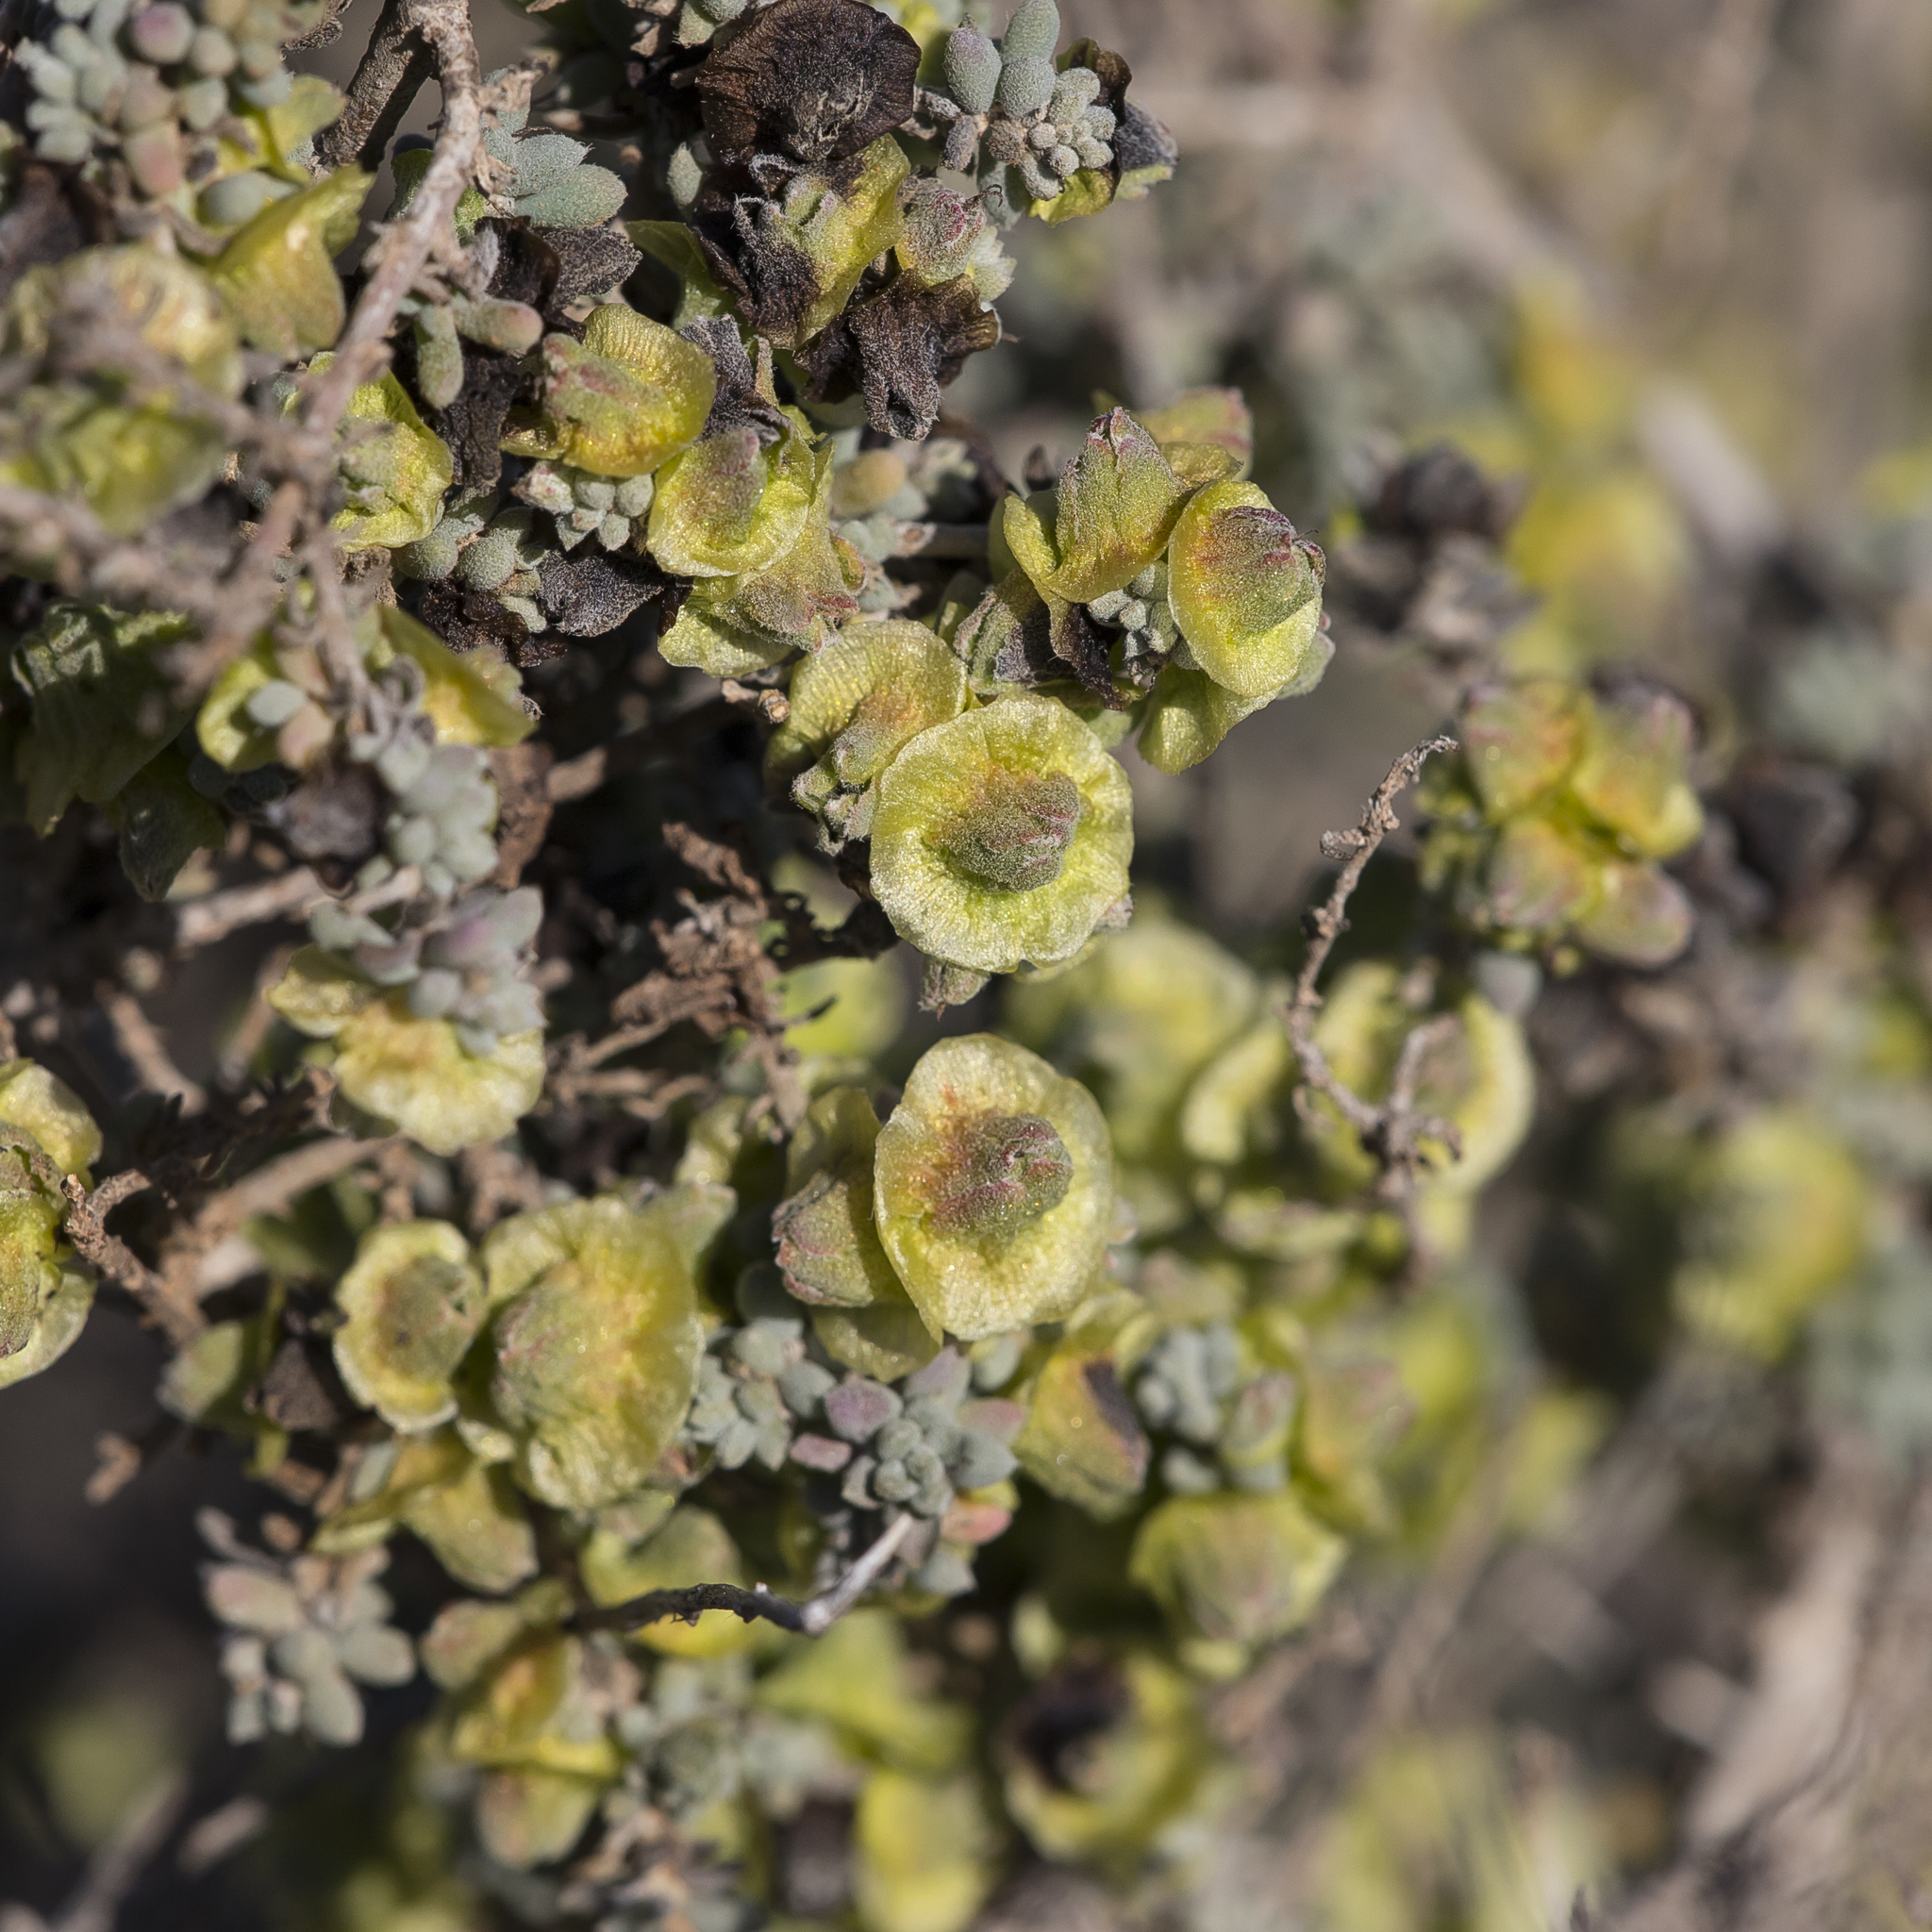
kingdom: Plantae
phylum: Tracheophyta
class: Magnoliopsida
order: Caryophyllales
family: Amaranthaceae
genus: Maireana
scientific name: Maireana pyramidata
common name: Sagobush
